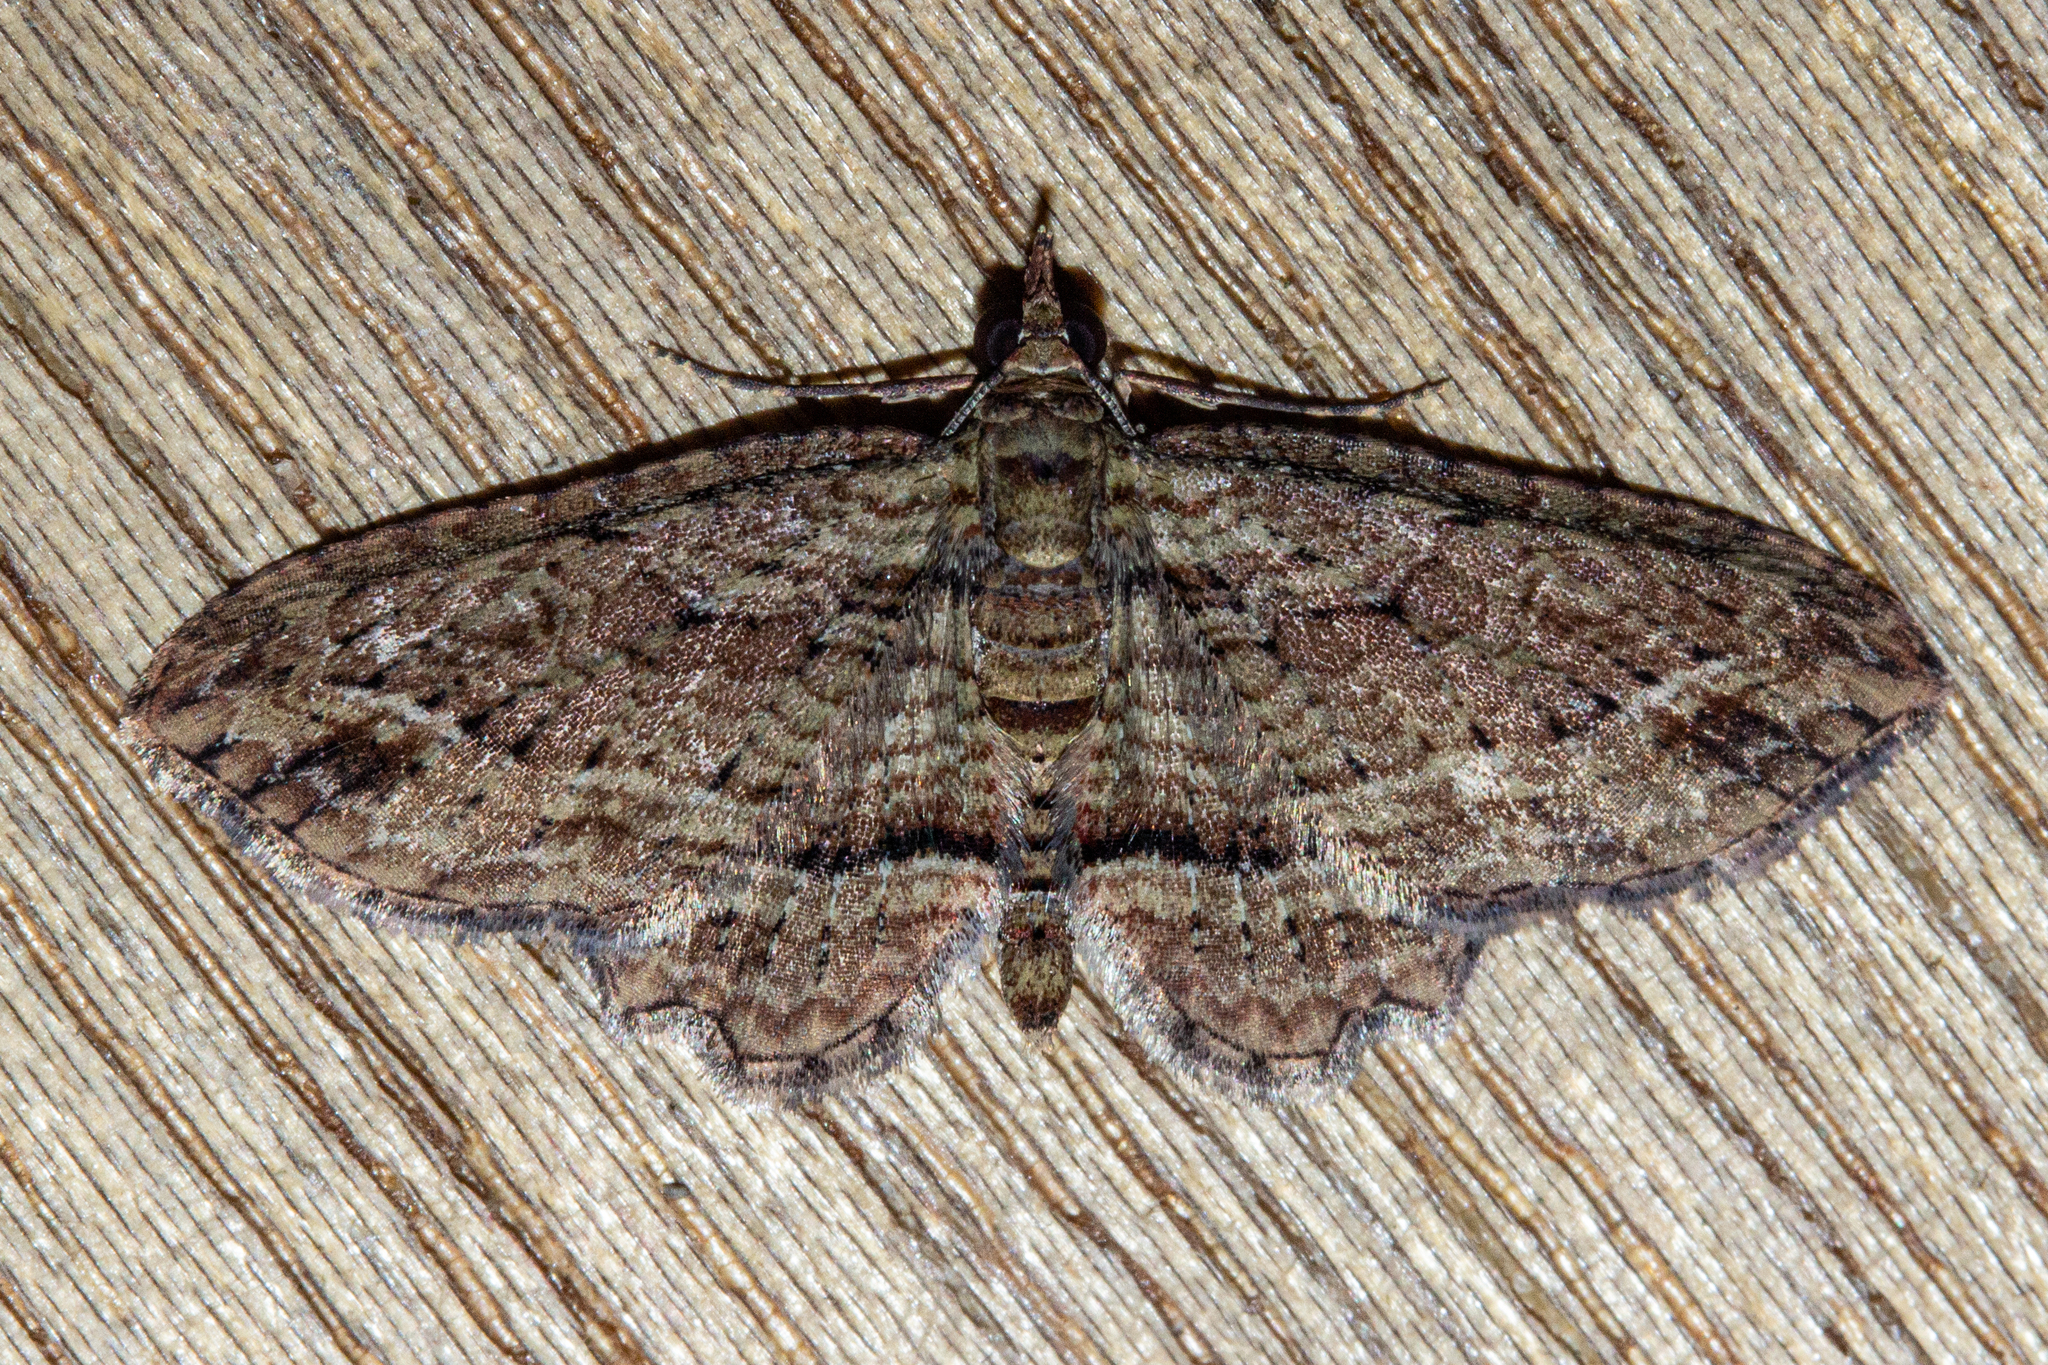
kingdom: Animalia
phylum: Arthropoda
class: Insecta
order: Lepidoptera
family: Geometridae
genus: Chloroclystis
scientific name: Chloroclystis filata
